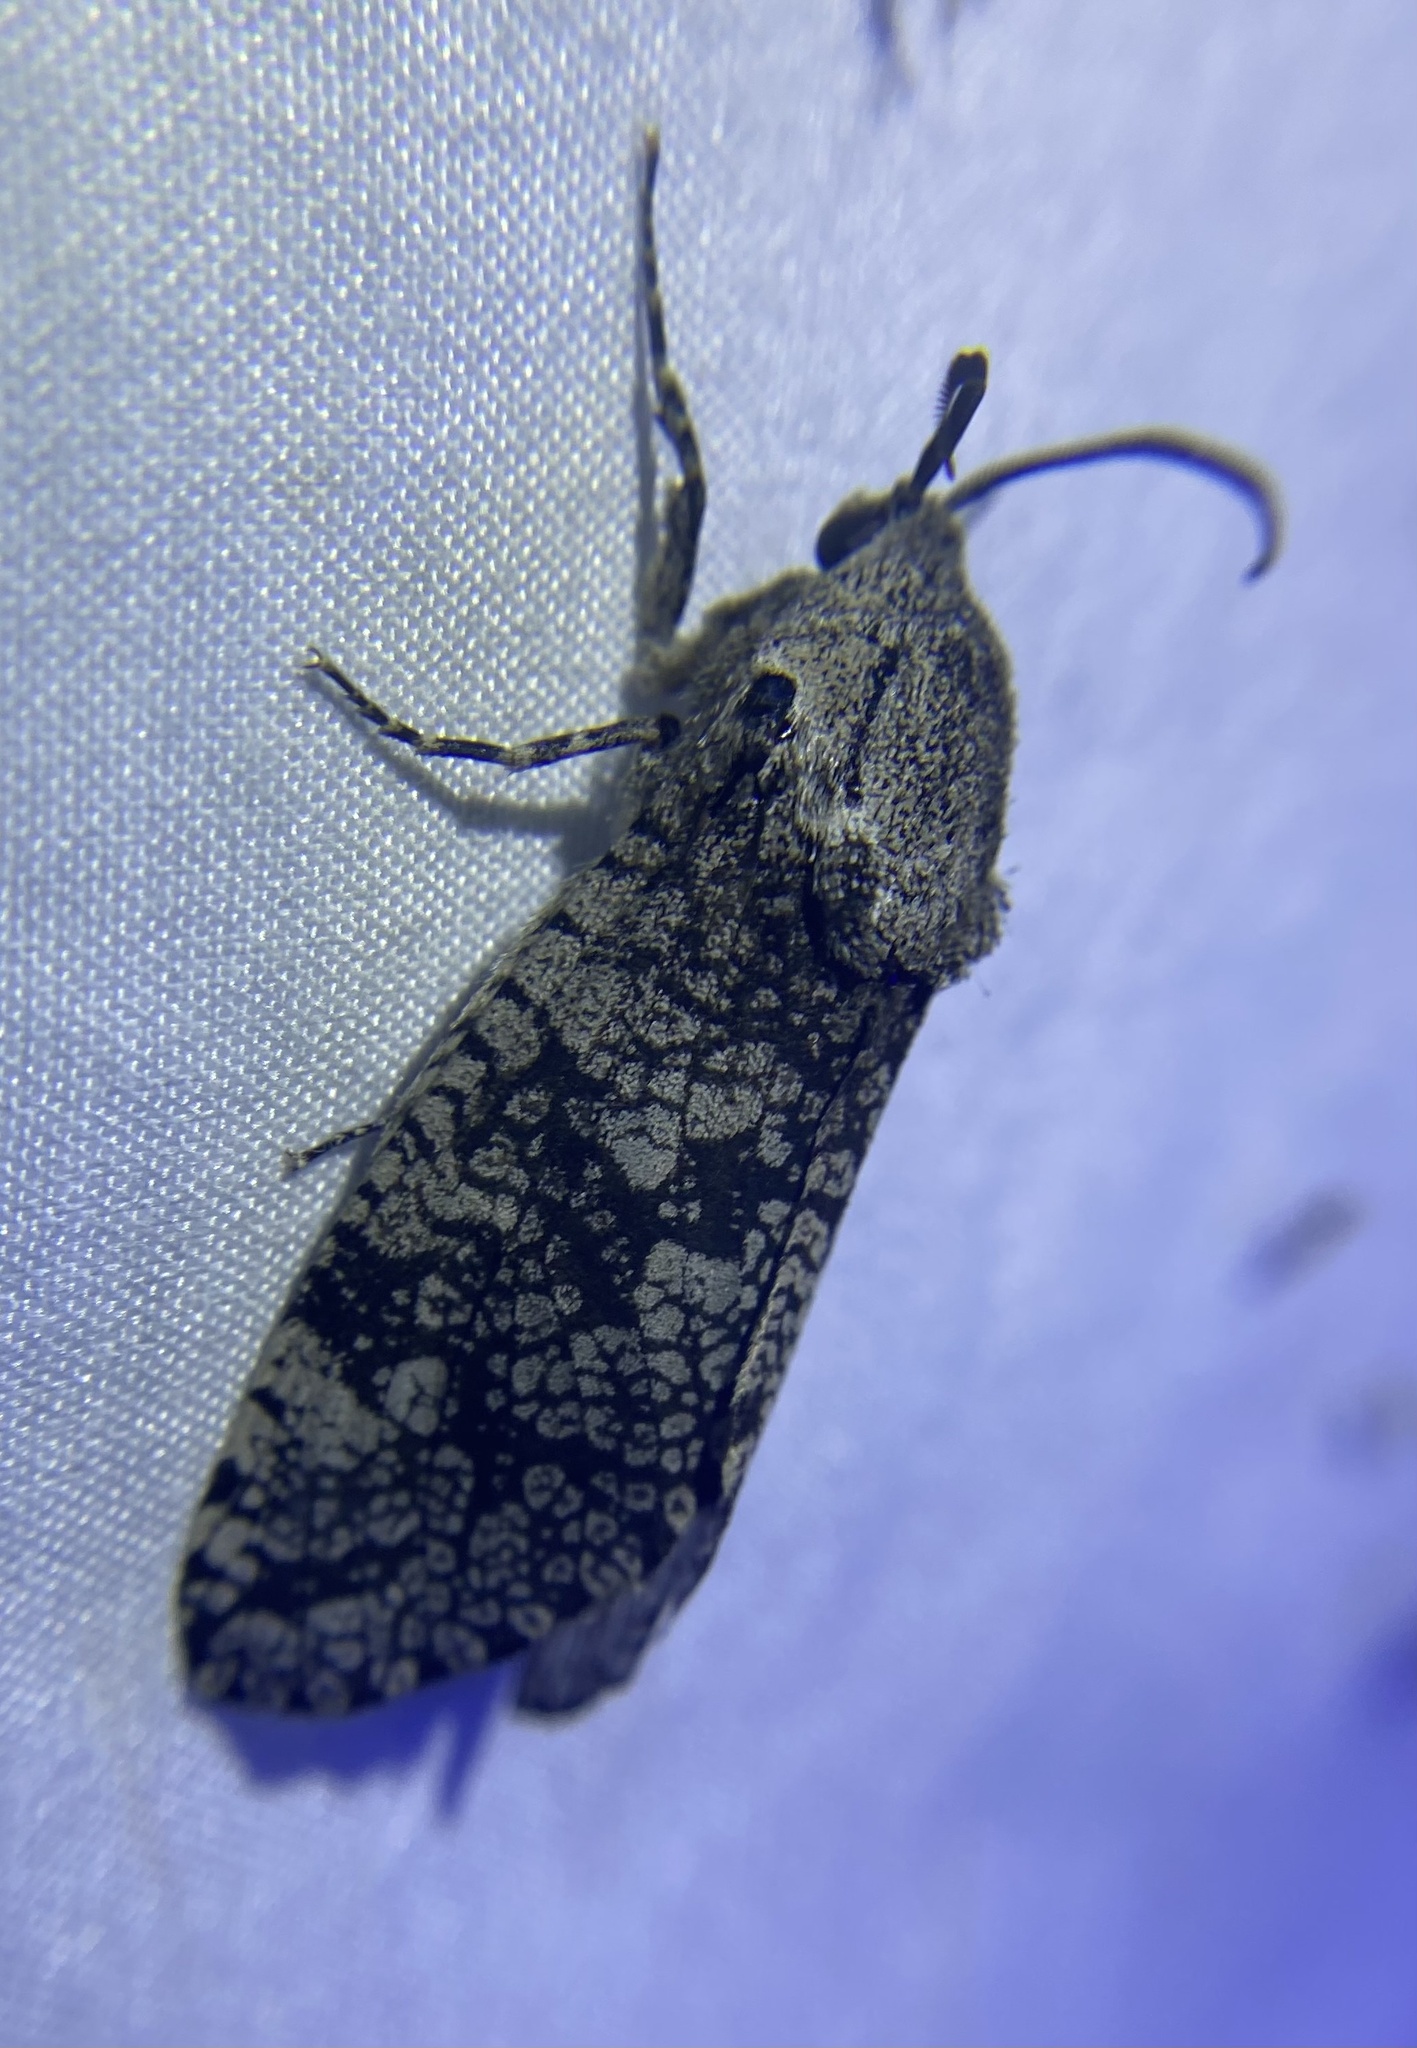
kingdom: Animalia
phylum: Arthropoda
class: Insecta
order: Lepidoptera
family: Cossidae
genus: Prionoxystus
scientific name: Prionoxystus robiniae
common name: Carpenterworm
